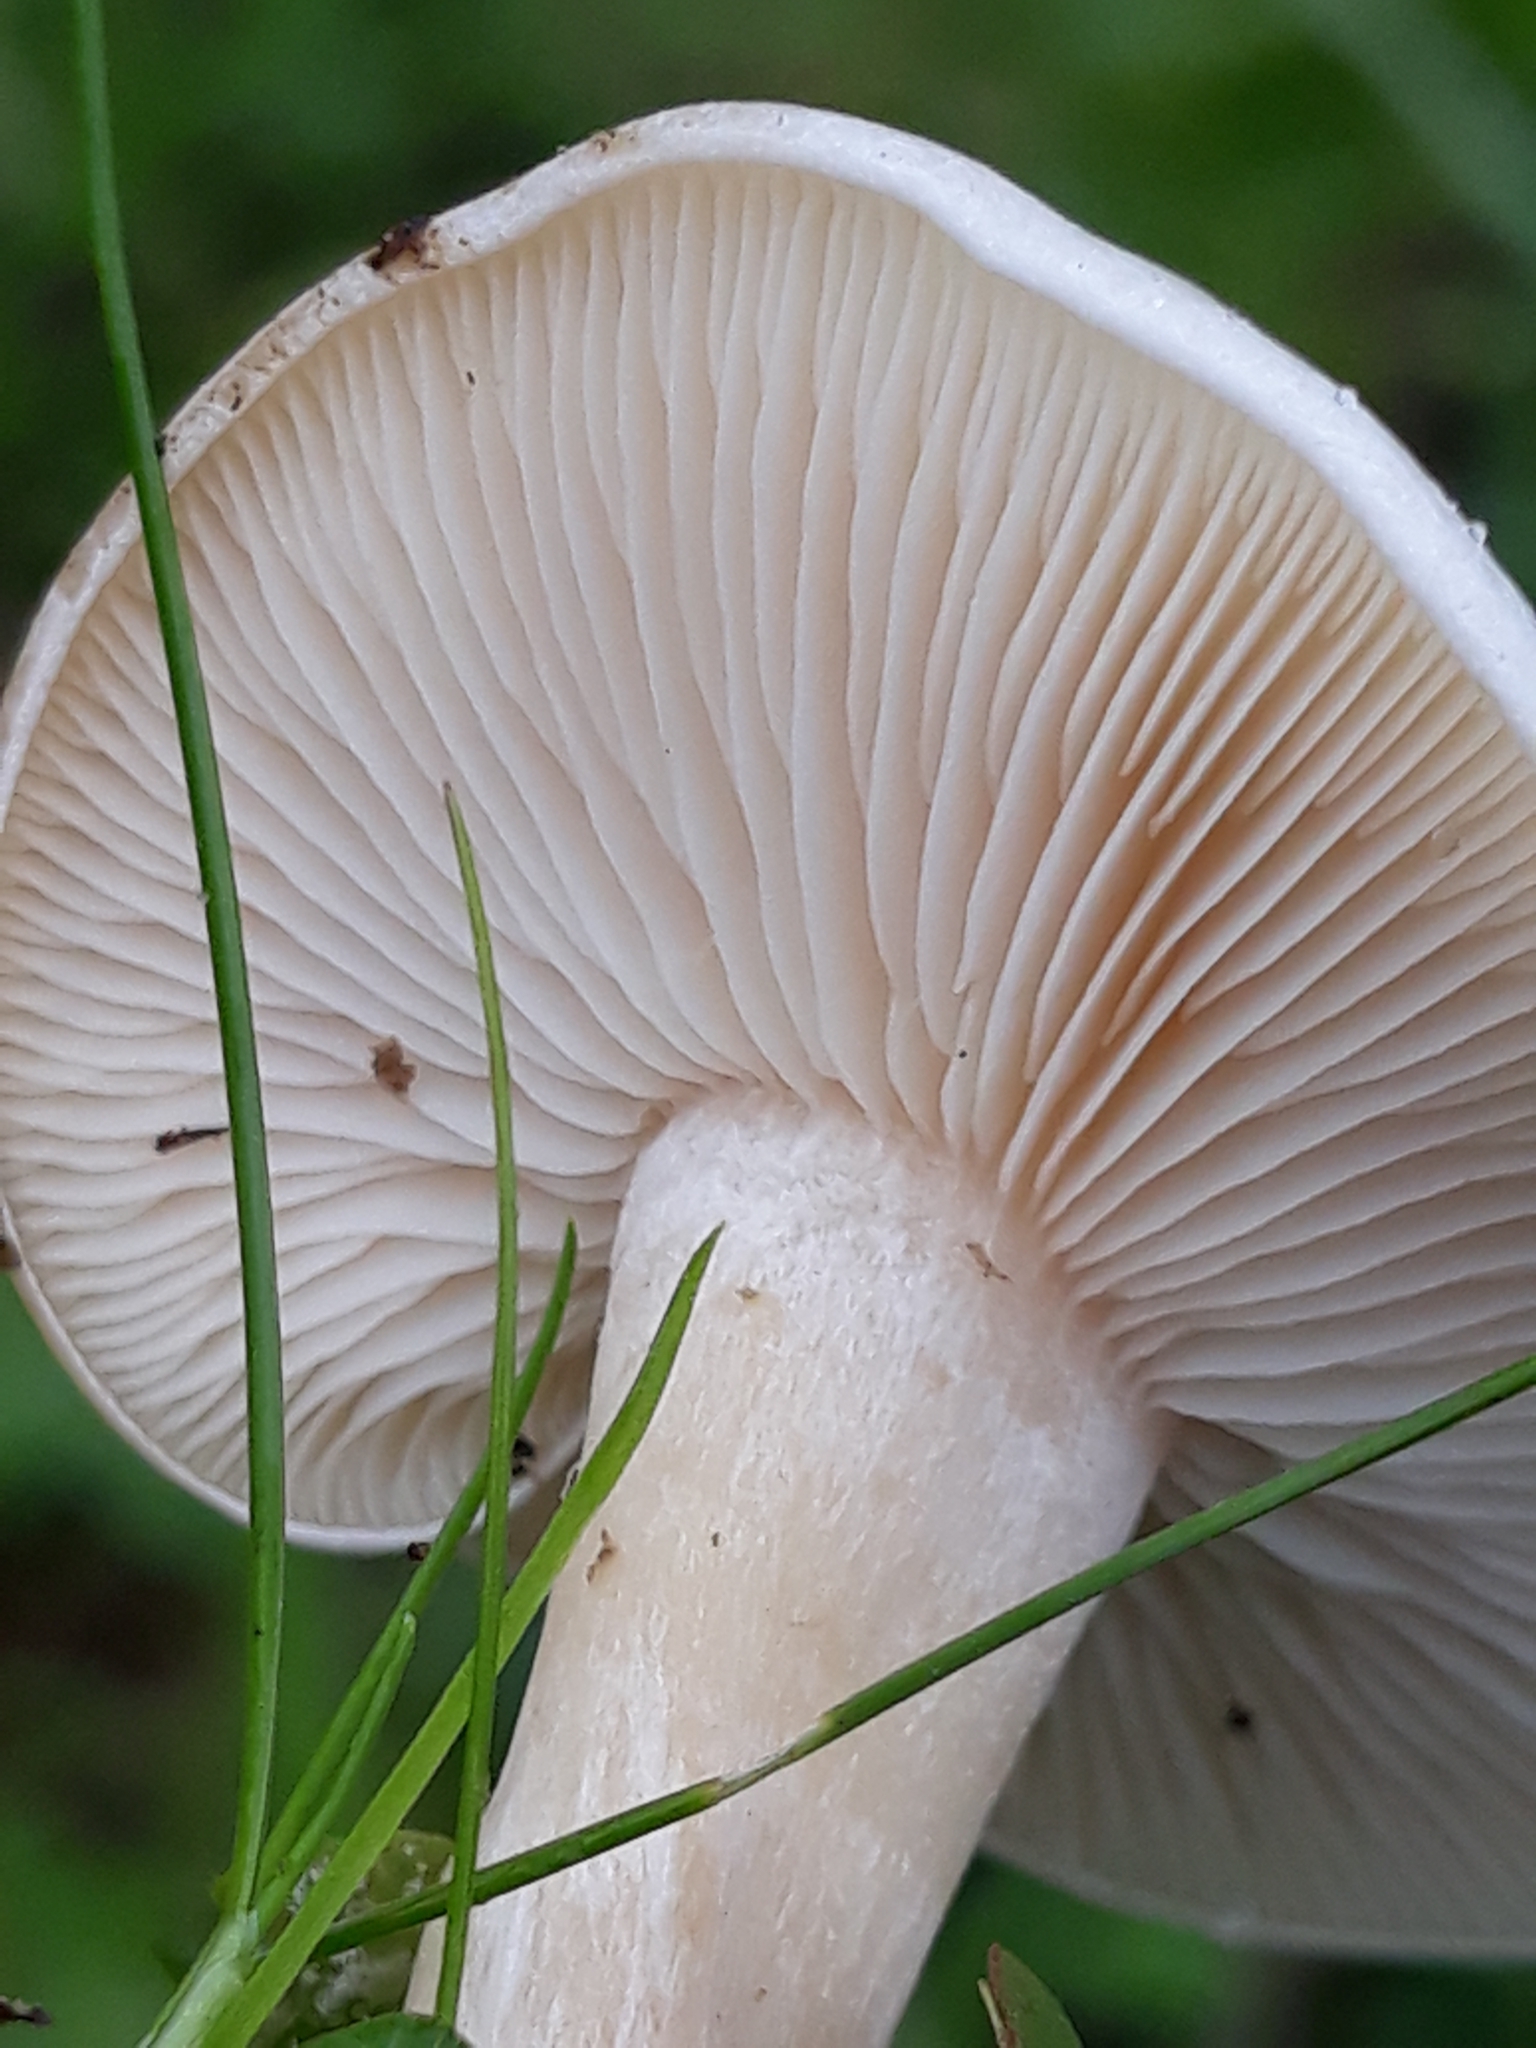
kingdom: Fungi
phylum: Basidiomycota
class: Agaricomycetes
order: Agaricales
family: Tricholomataceae
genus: Collybia
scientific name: Collybia
